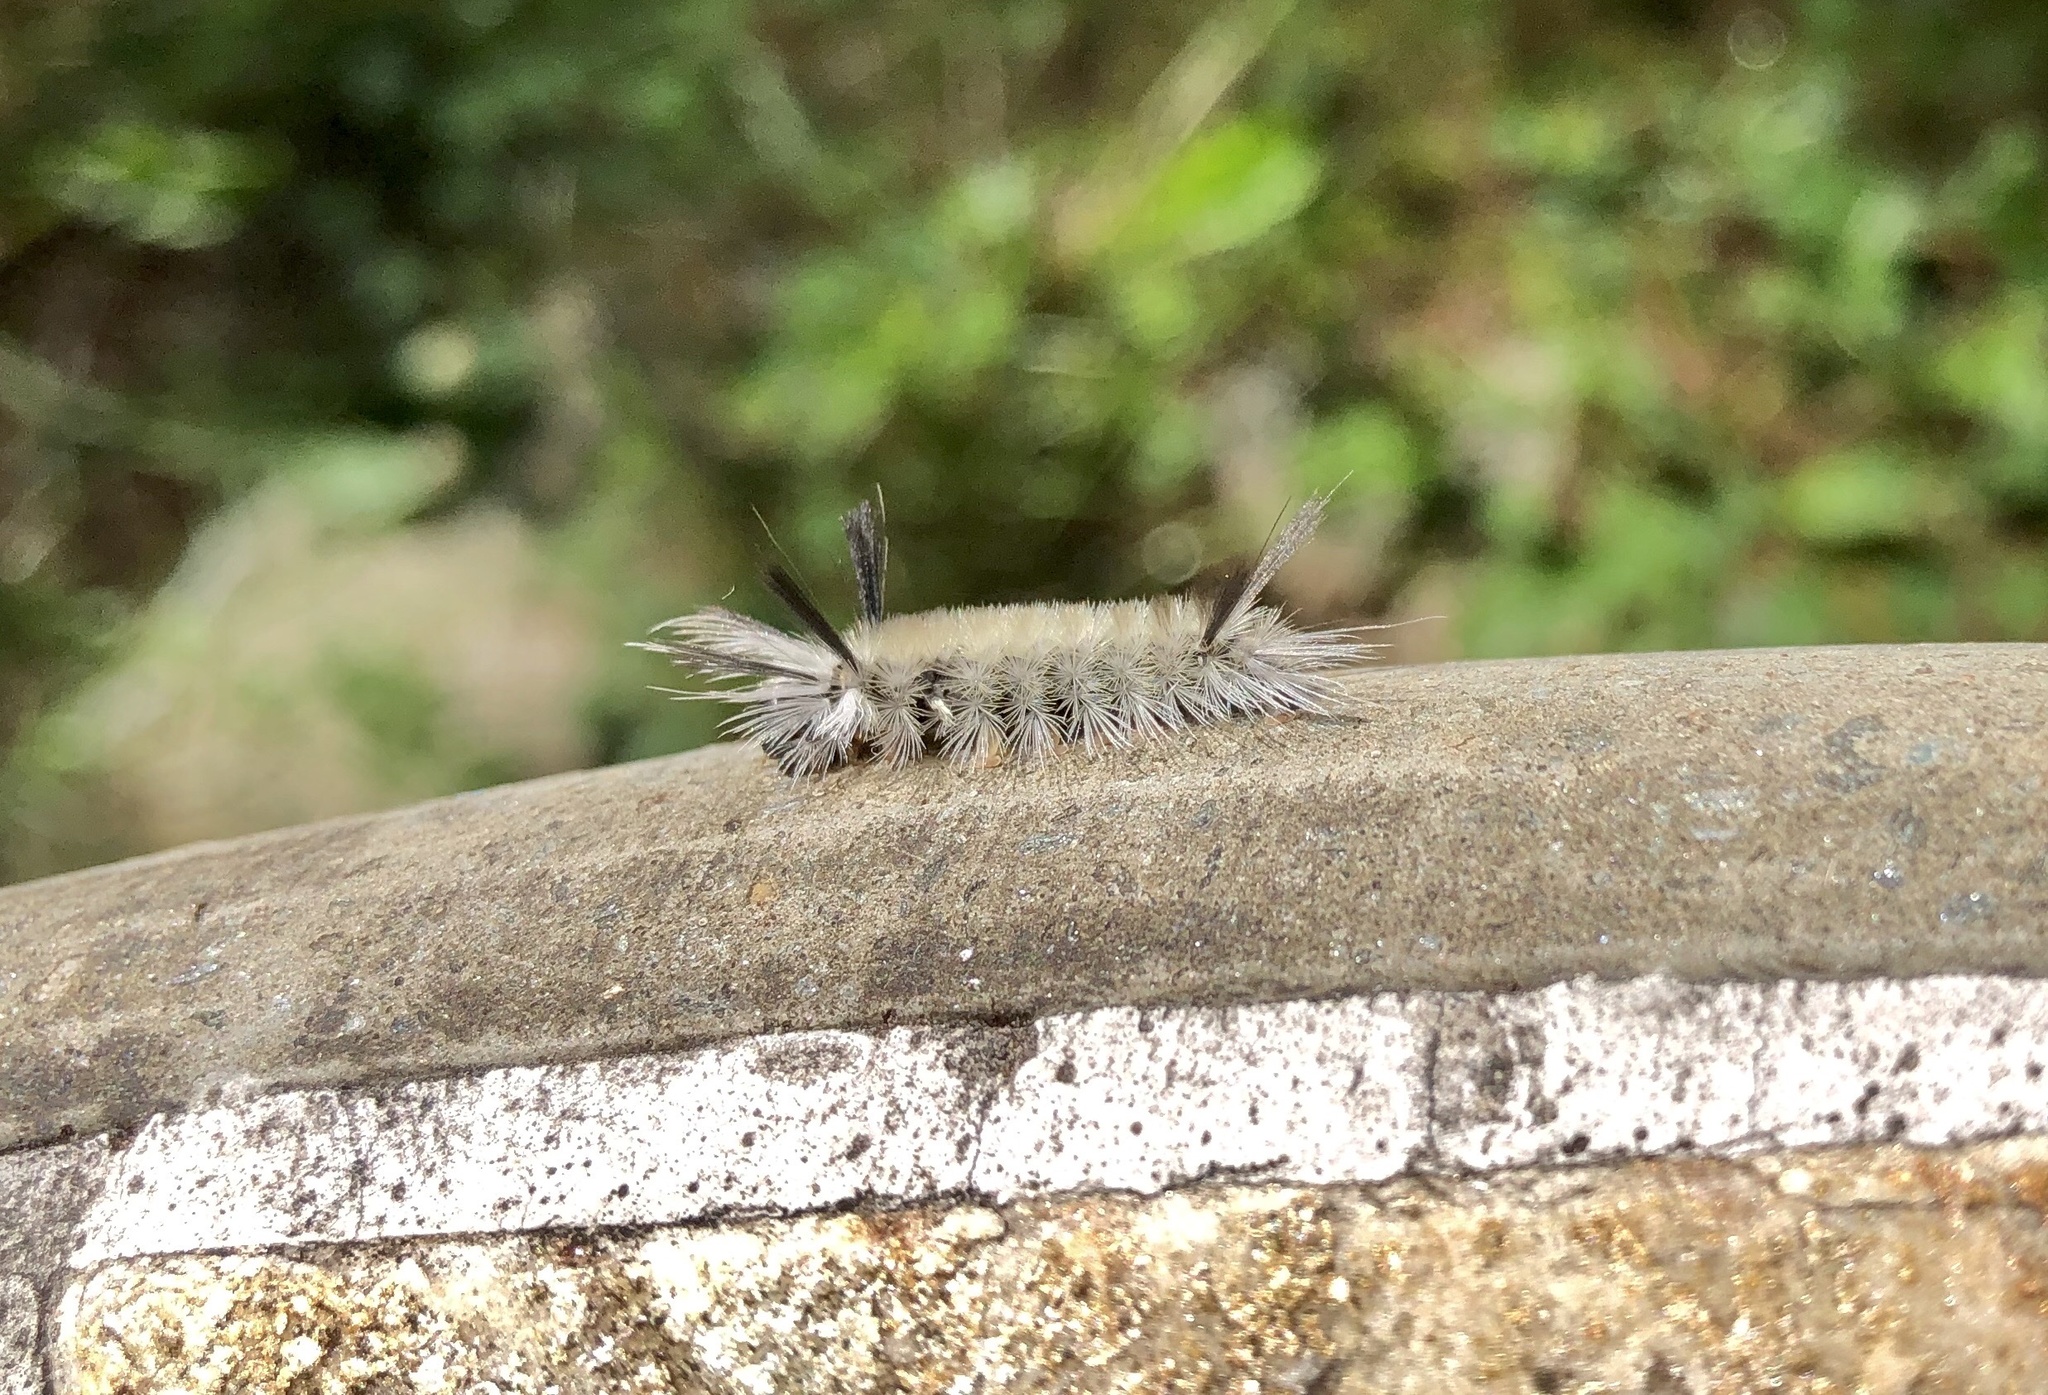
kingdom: Animalia
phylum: Arthropoda
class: Insecta
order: Lepidoptera
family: Erebidae
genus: Halysidota
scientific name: Halysidota tessellaris
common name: Banded tussock moth
